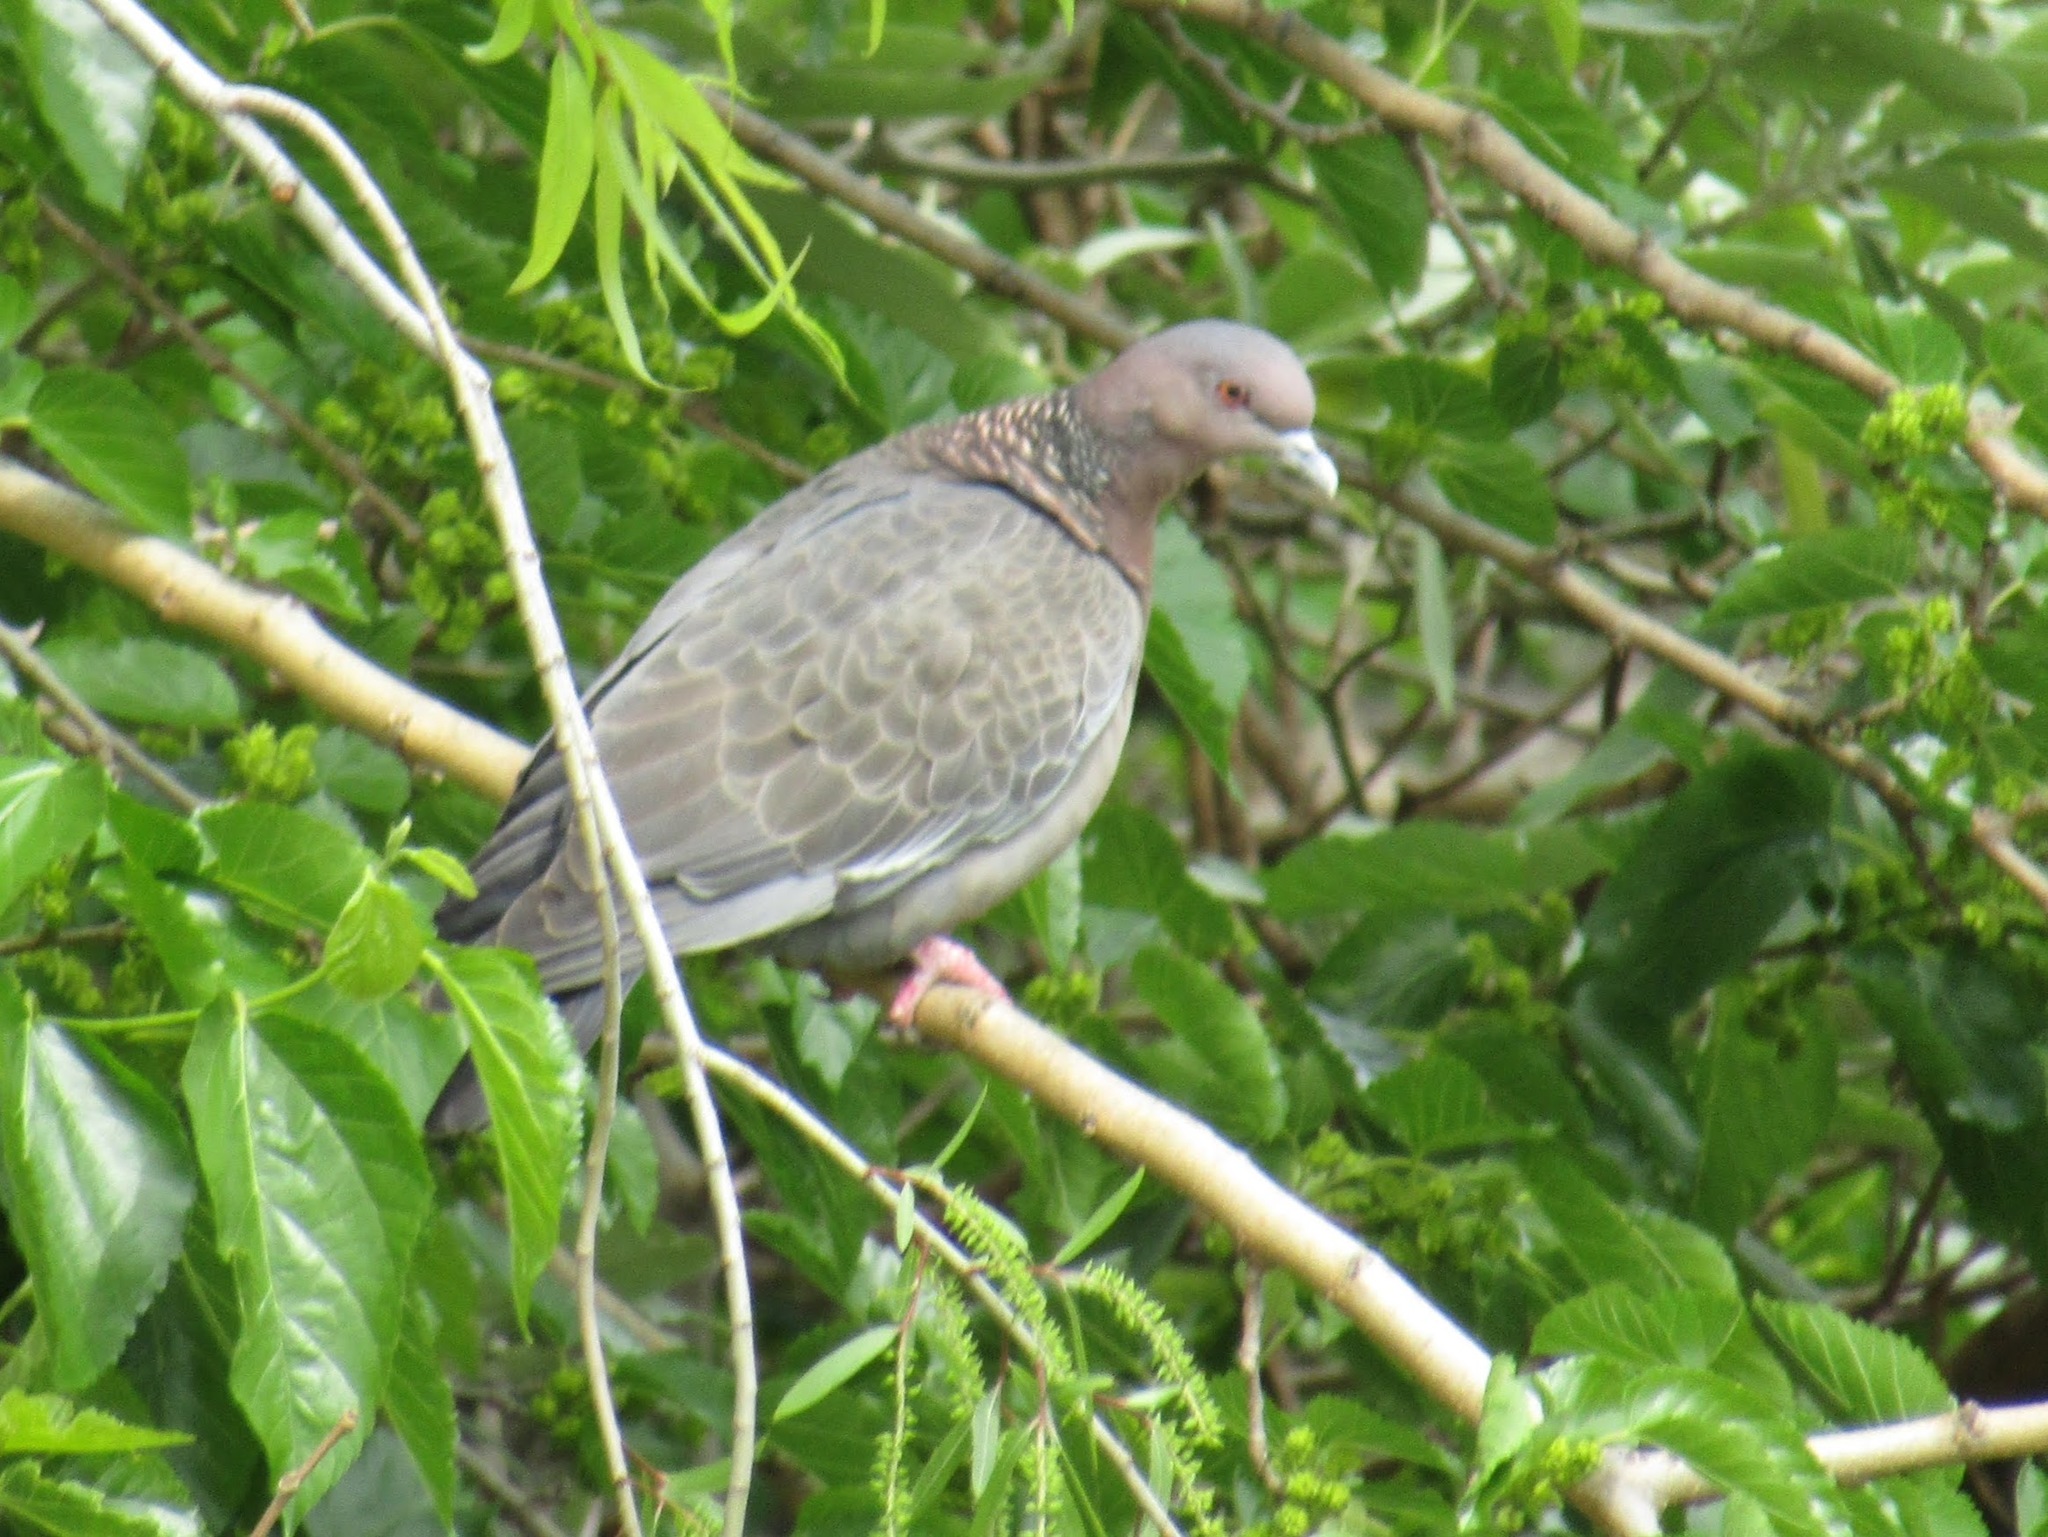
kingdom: Animalia
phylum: Chordata
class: Aves
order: Columbiformes
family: Columbidae
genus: Patagioenas
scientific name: Patagioenas picazuro
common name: Picazuro pigeon
